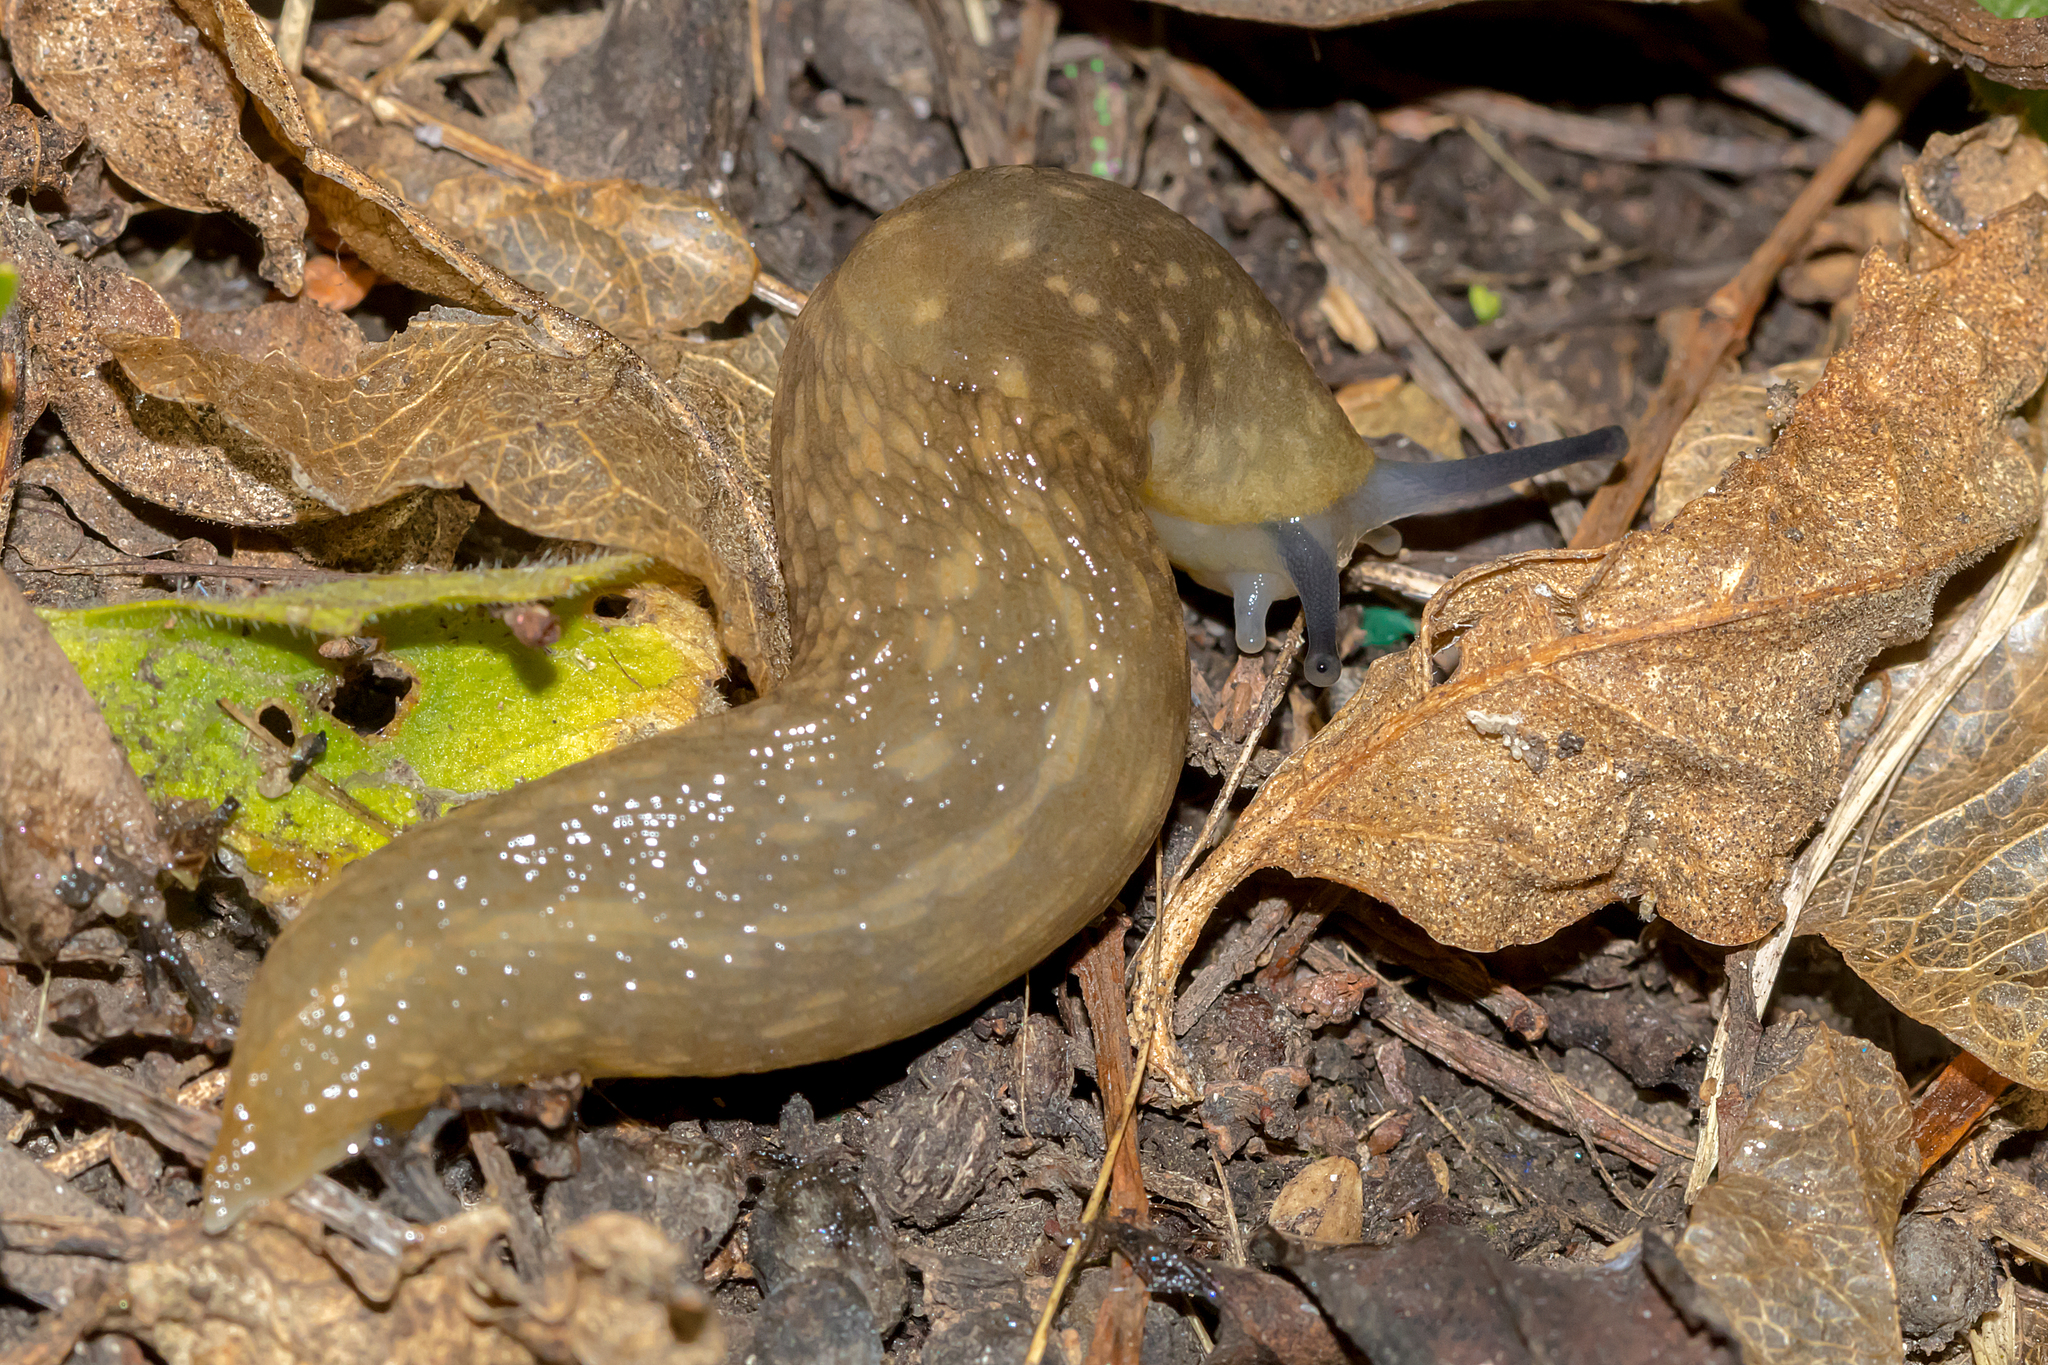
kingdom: Animalia
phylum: Mollusca
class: Gastropoda
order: Stylommatophora
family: Limacidae
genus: Limacus
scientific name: Limacus flavus
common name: Yellow gardenslug
